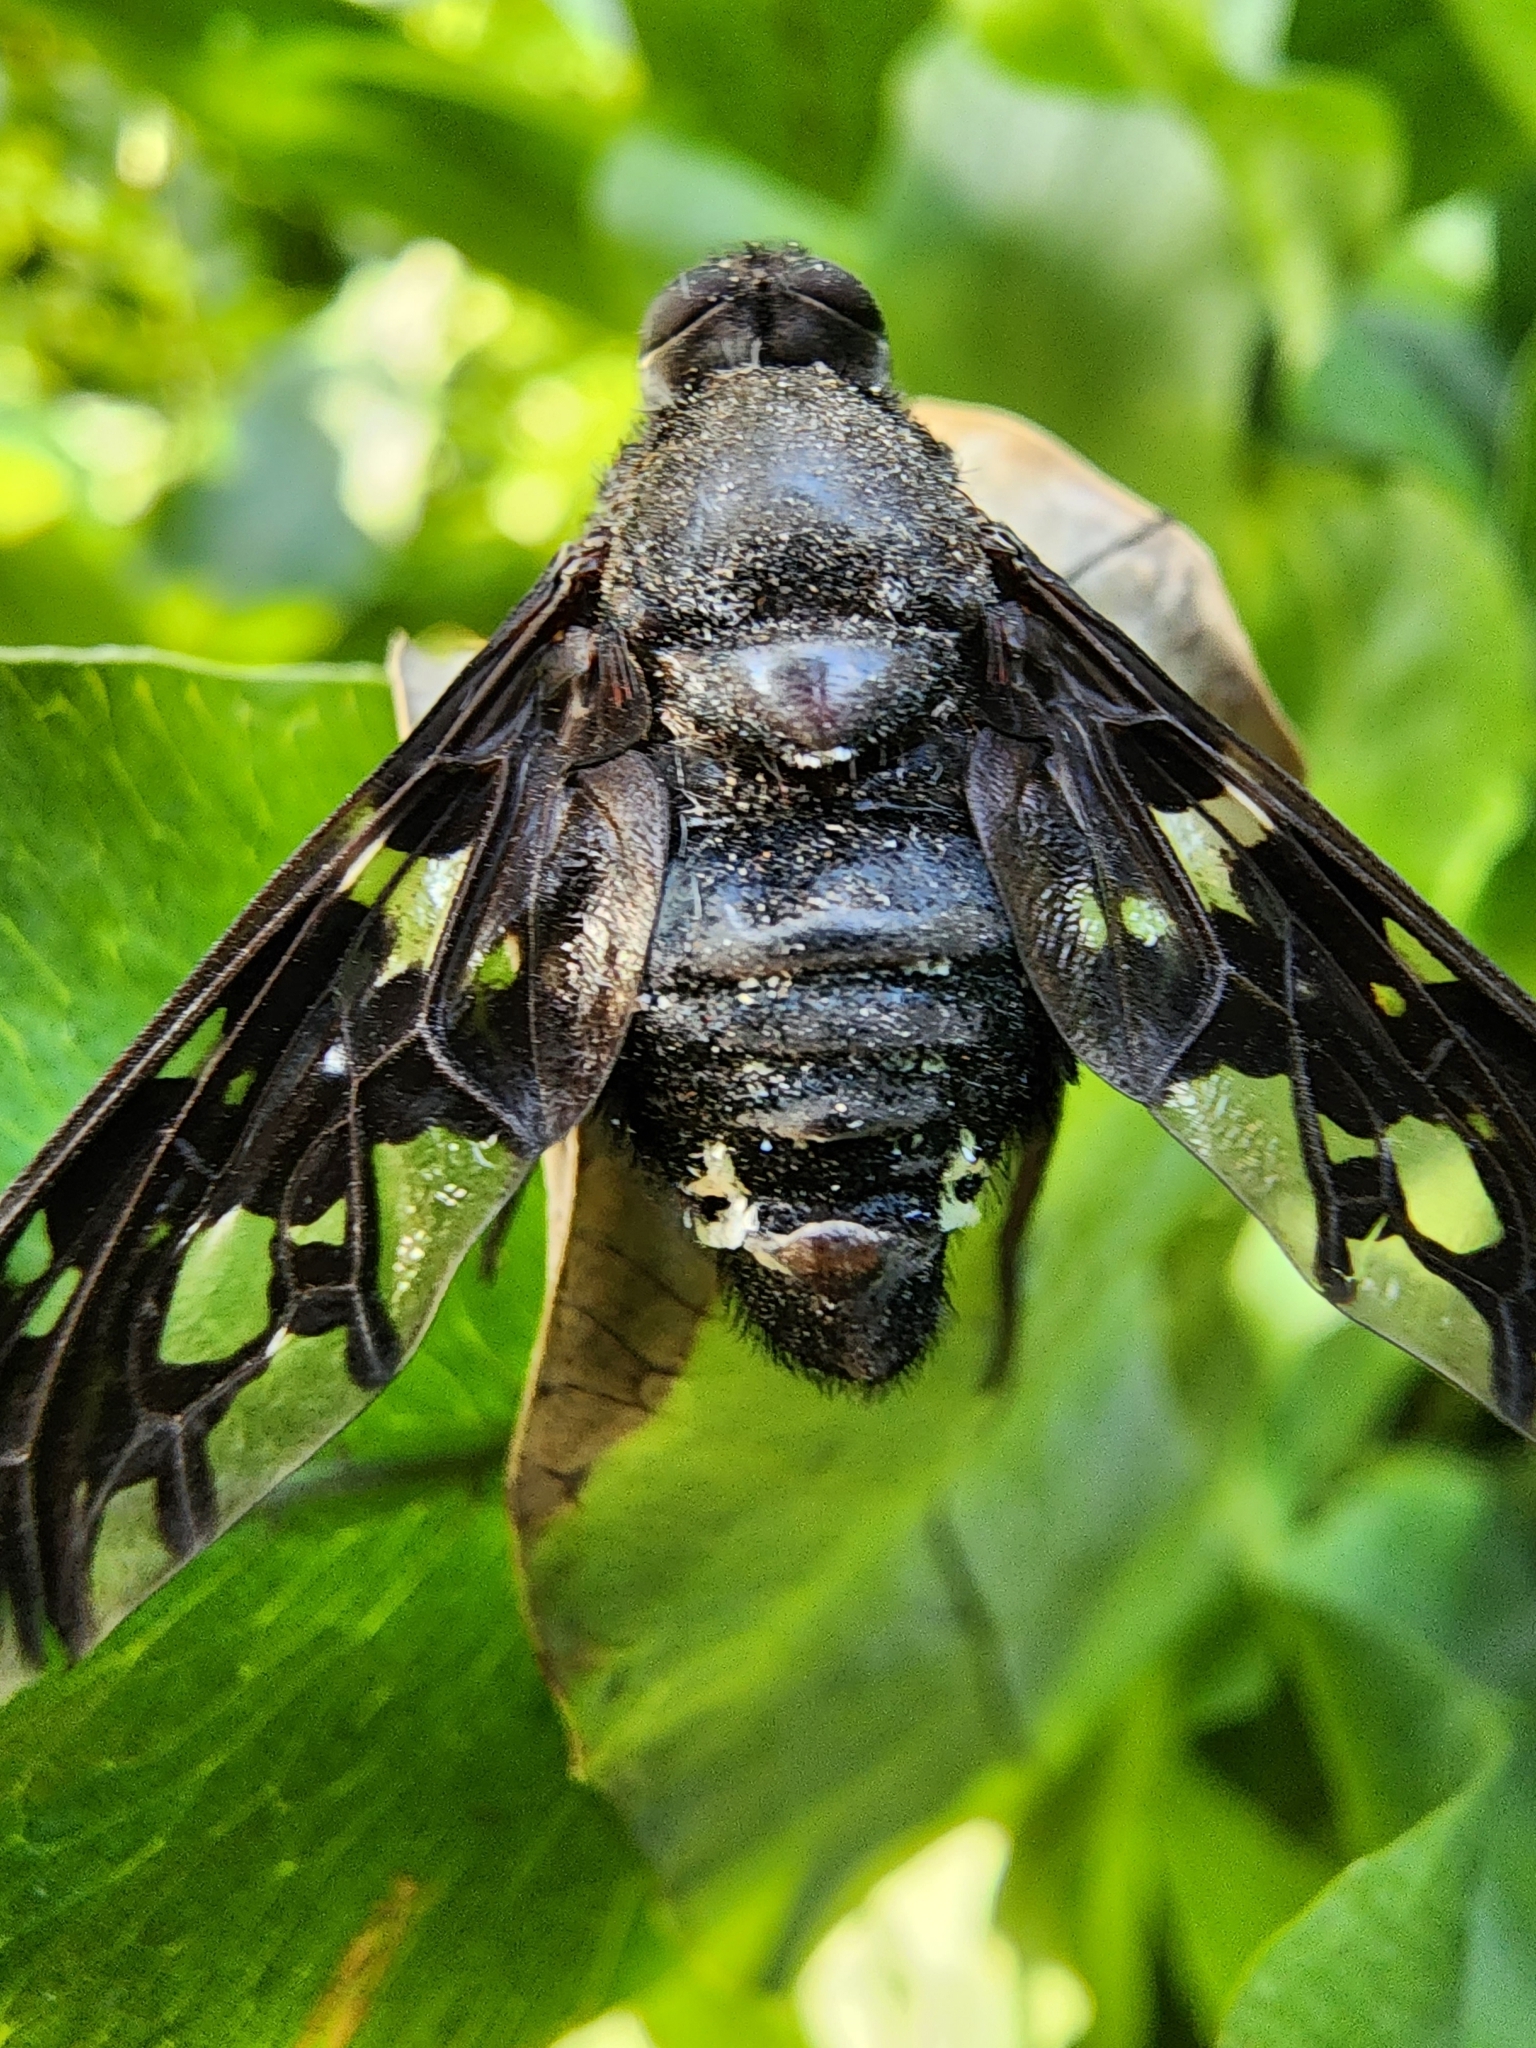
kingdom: Animalia
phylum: Arthropoda
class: Insecta
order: Diptera
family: Bombyliidae
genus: Xenox
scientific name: Xenox tigrinus
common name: Tiger bee fly
